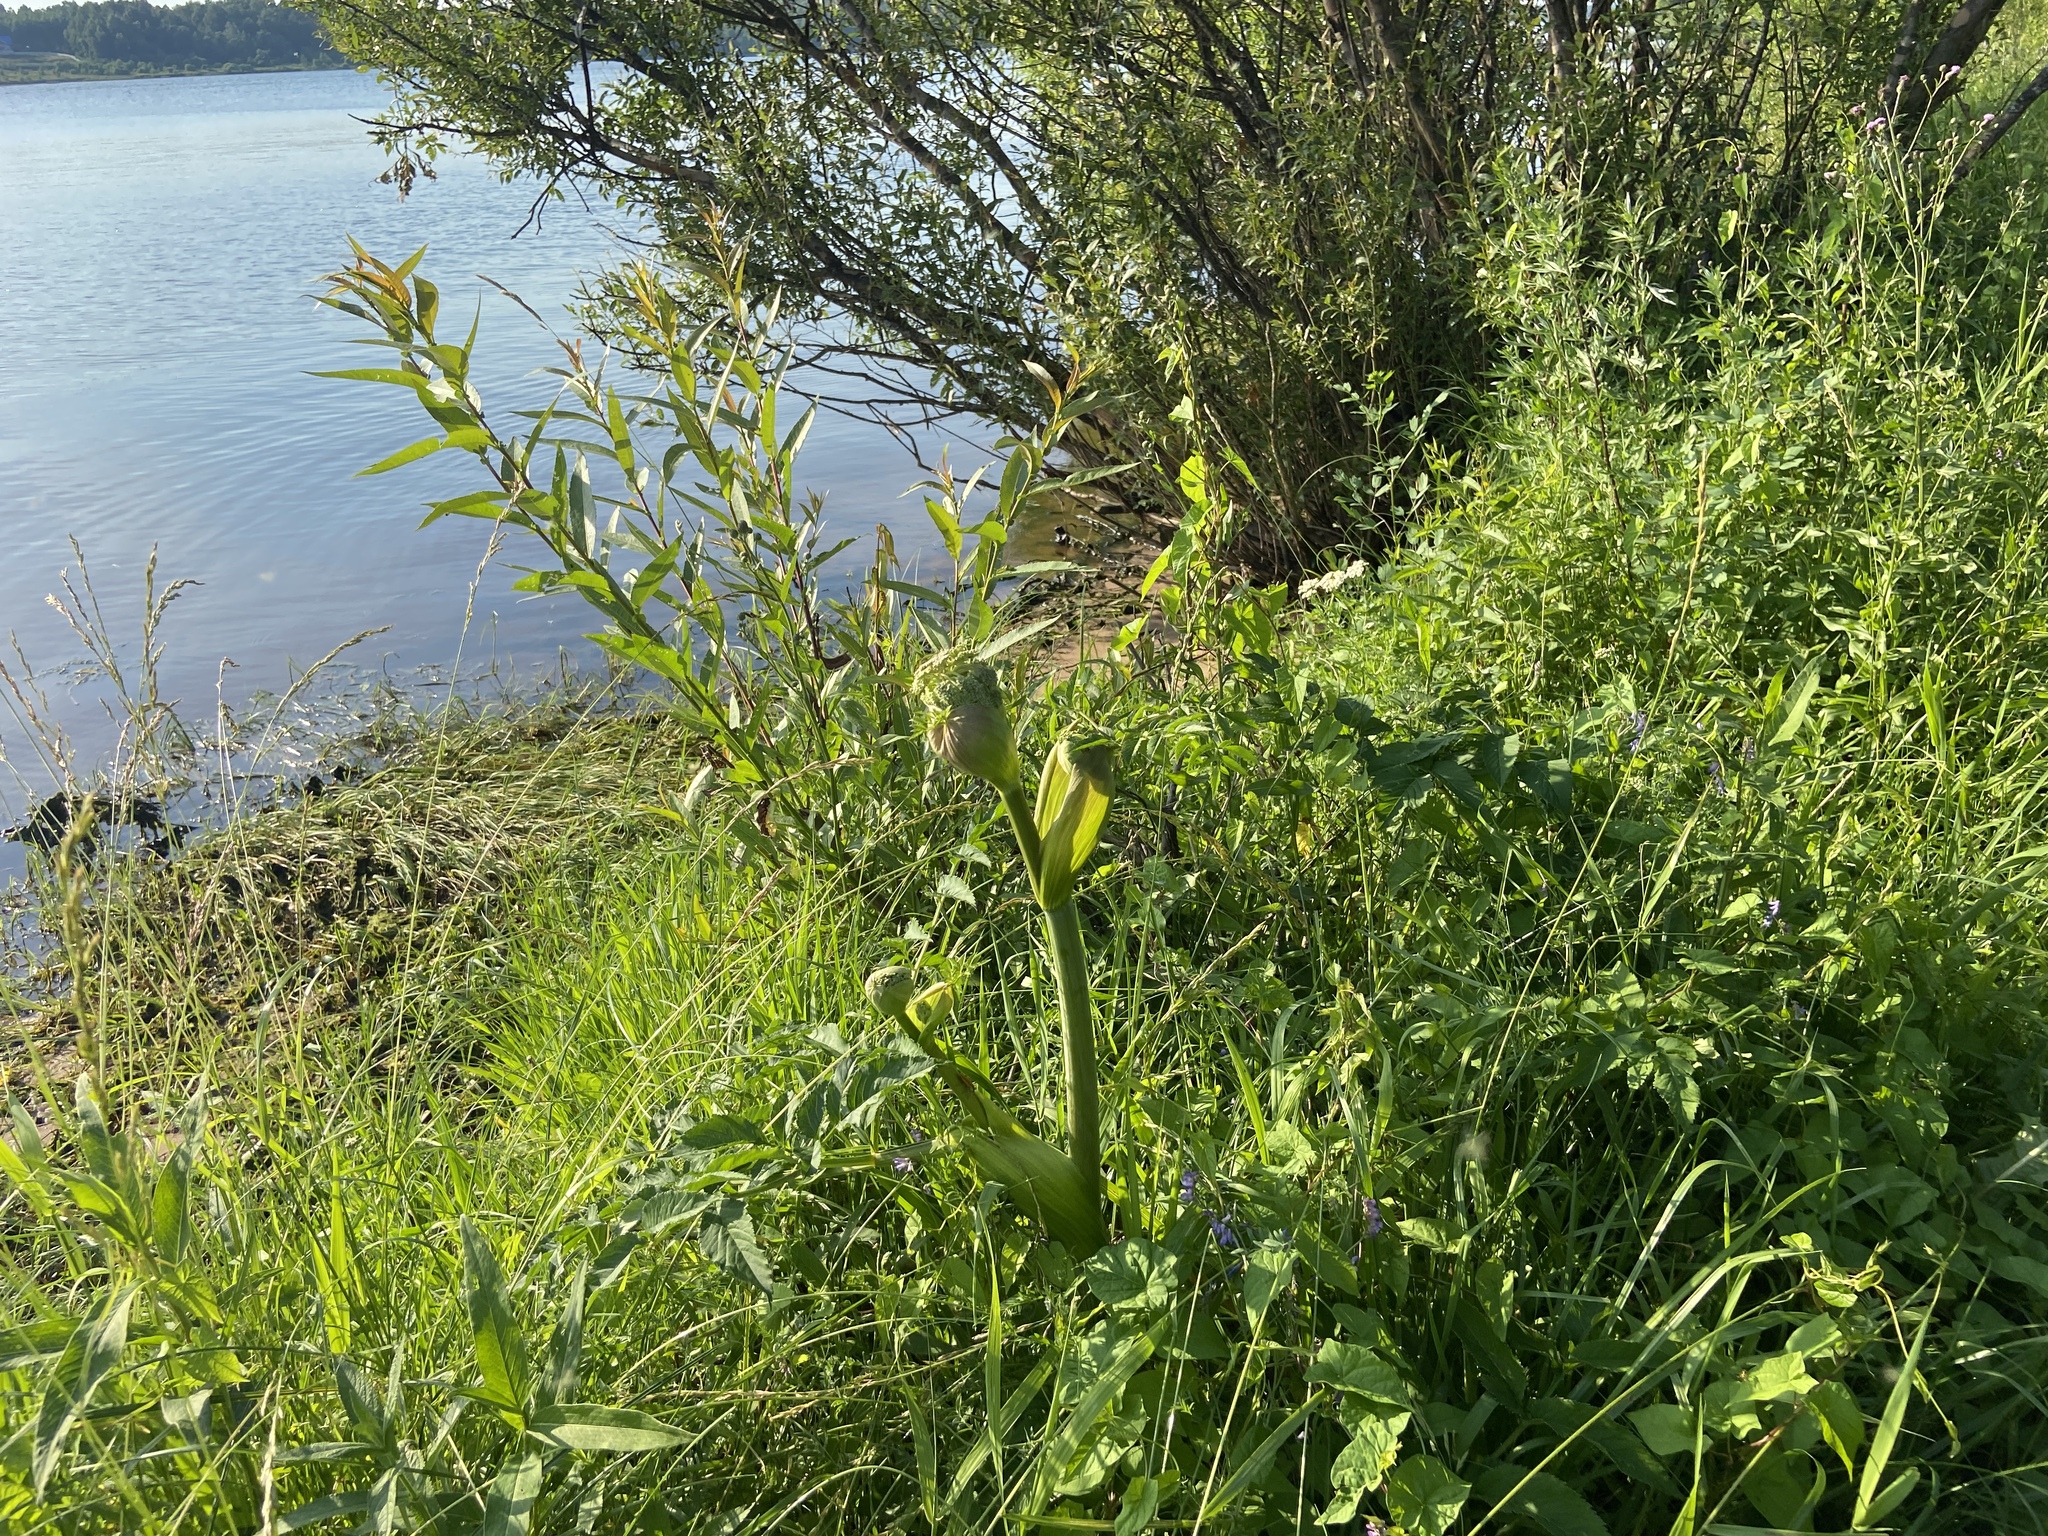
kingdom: Plantae
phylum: Tracheophyta
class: Magnoliopsida
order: Apiales
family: Apiaceae
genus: Angelica
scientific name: Angelica archangelica
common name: Garden angelica
